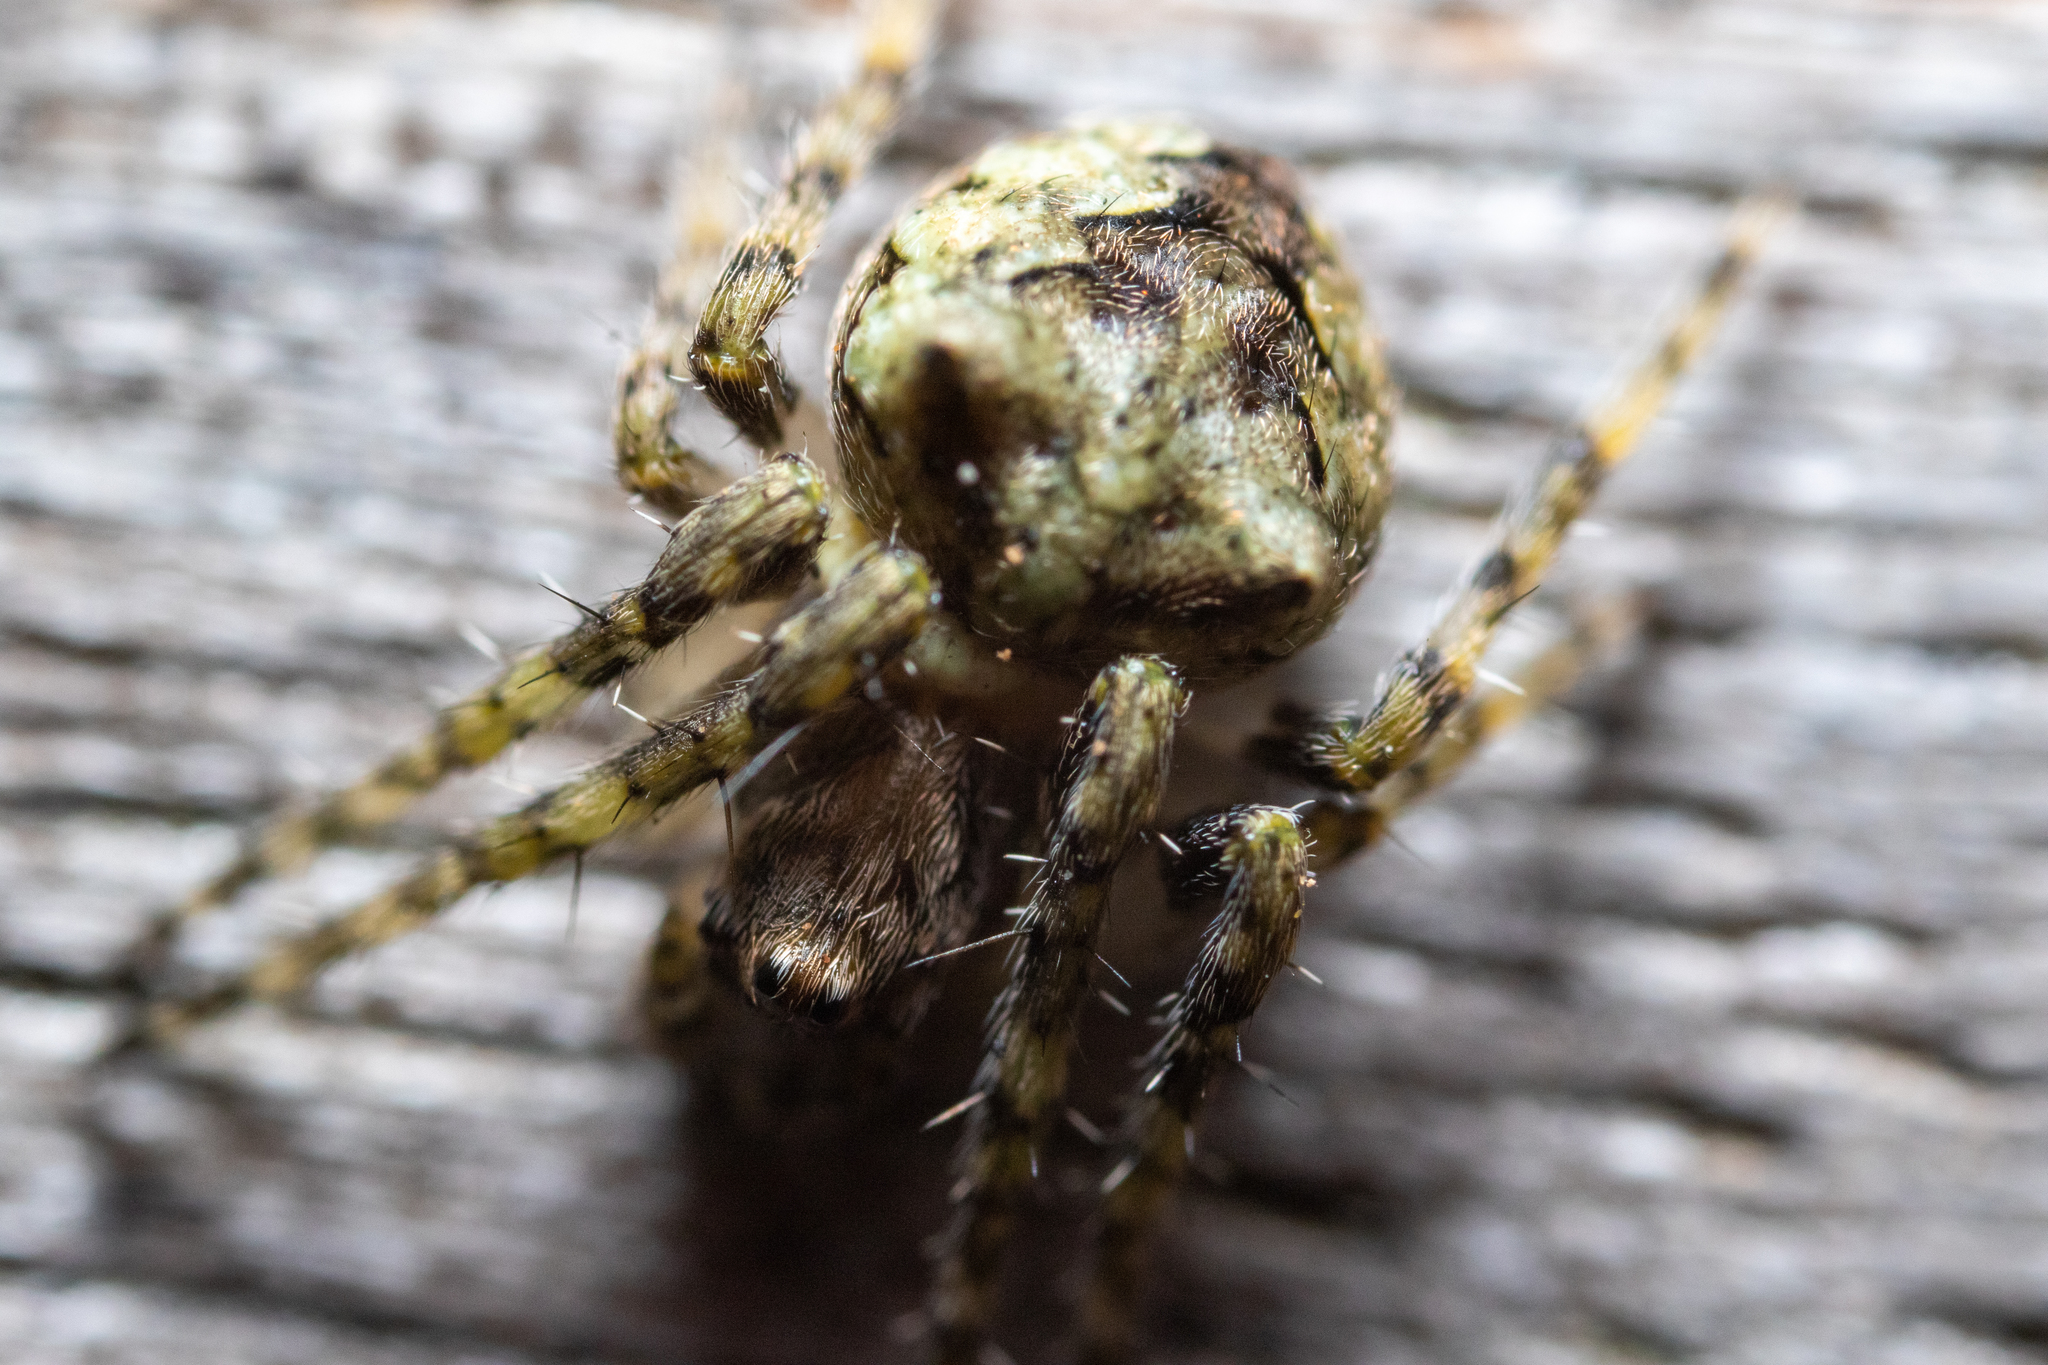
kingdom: Animalia
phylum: Arthropoda
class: Arachnida
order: Araneae
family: Araneidae
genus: Gibbaranea
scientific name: Gibbaranea gibbosa
